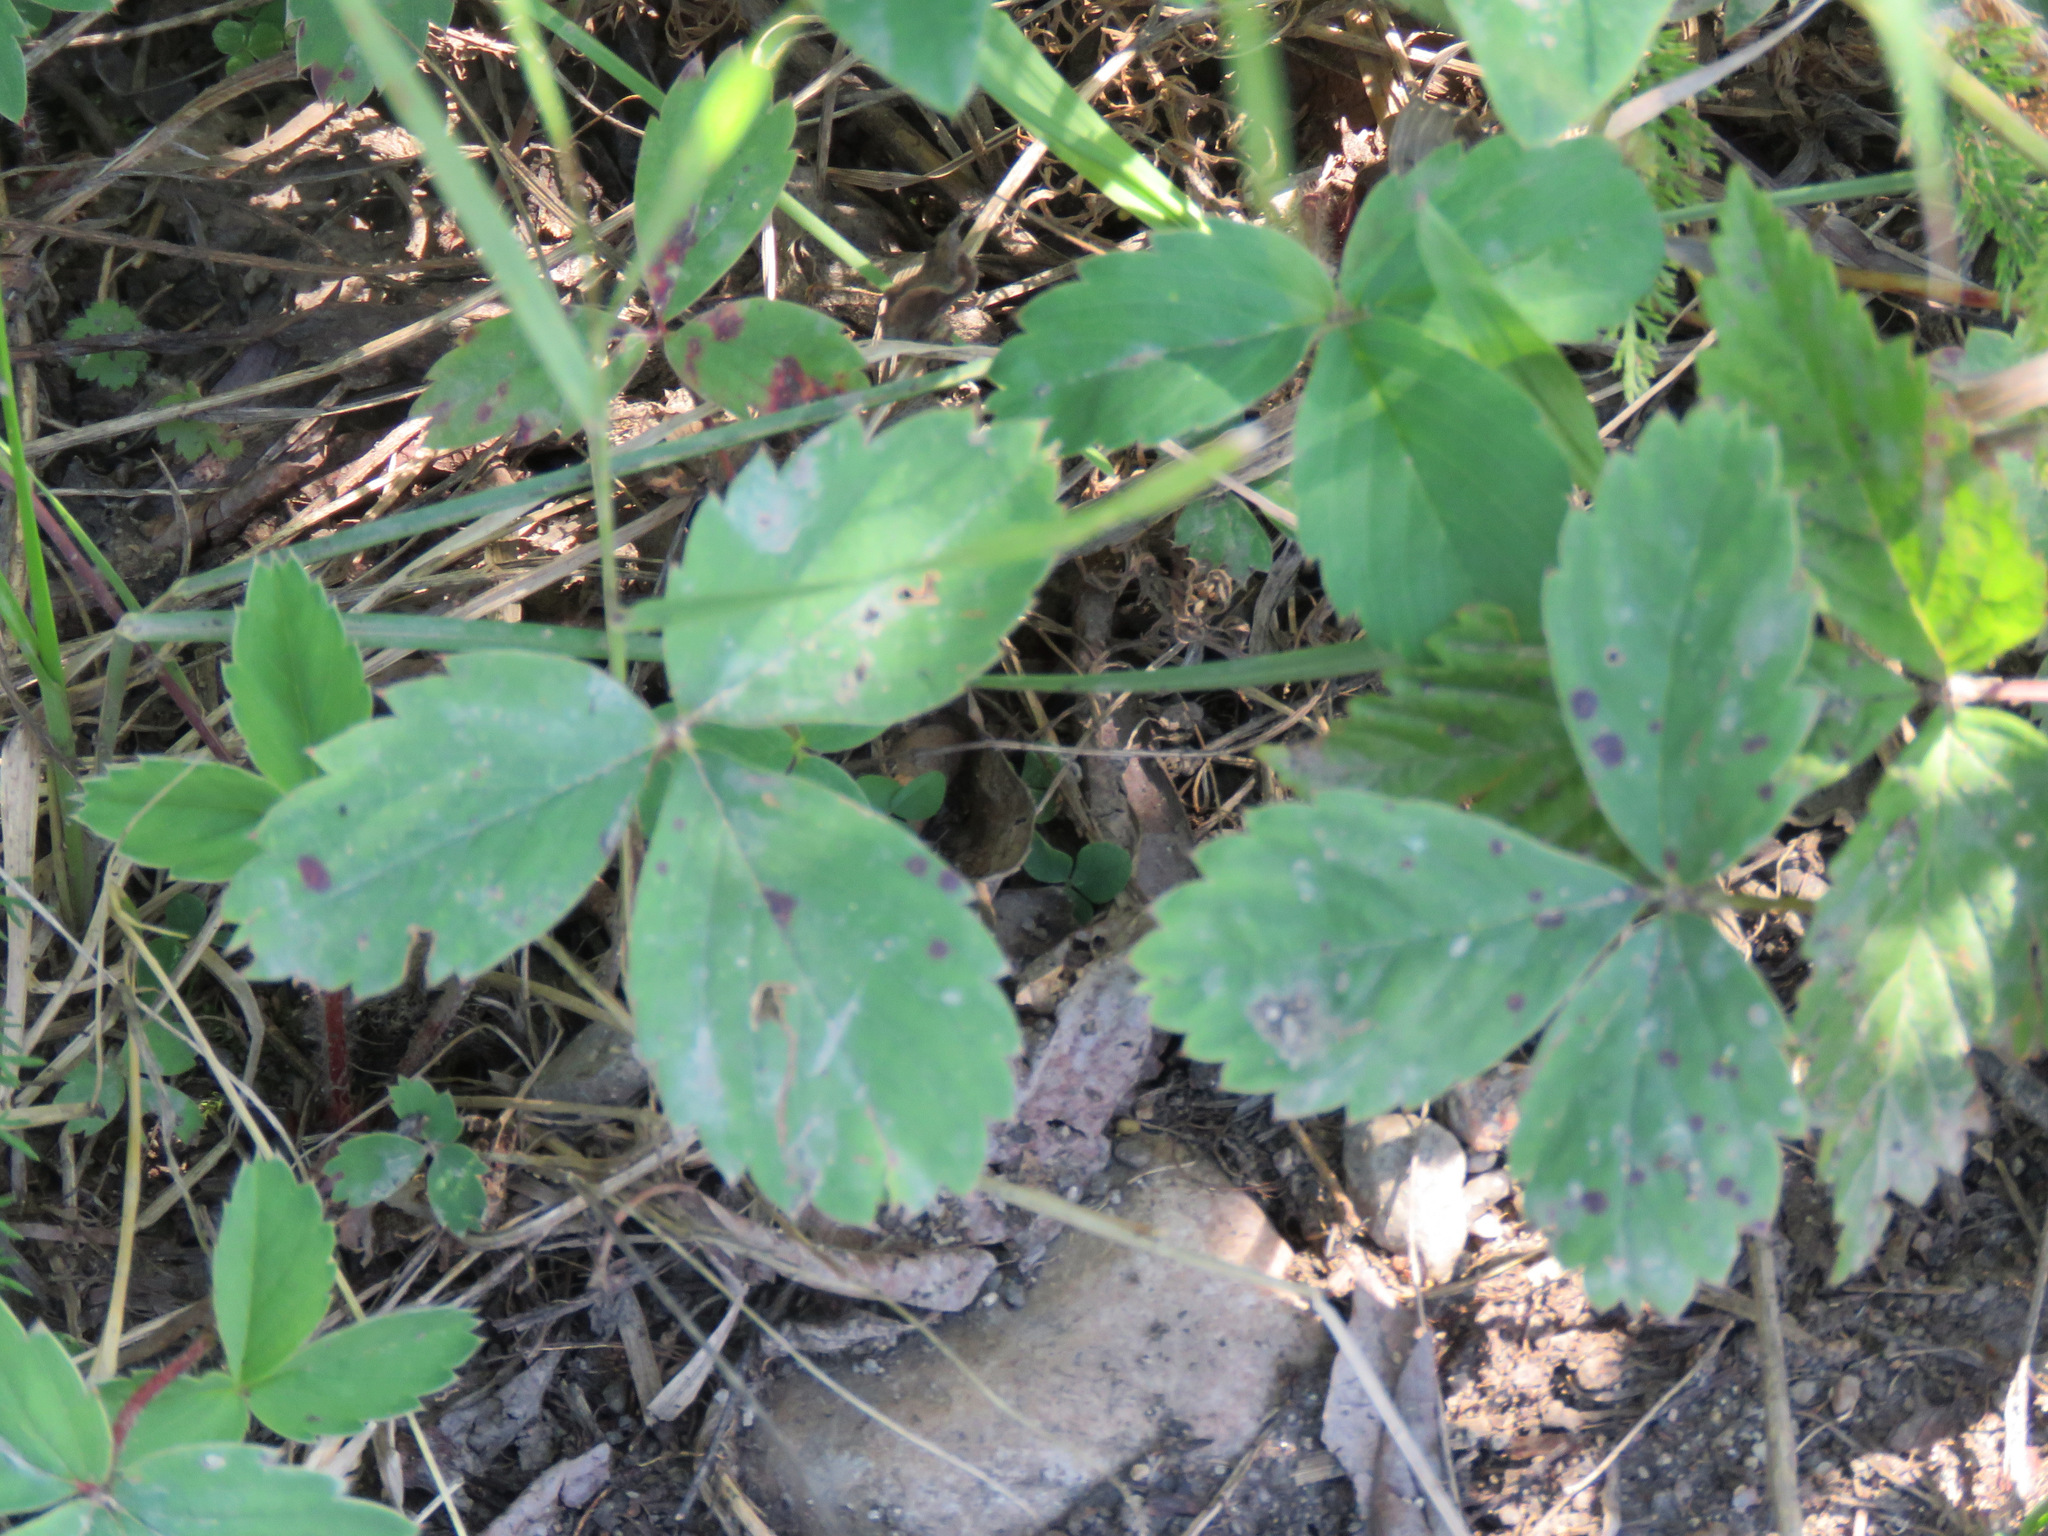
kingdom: Plantae
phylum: Tracheophyta
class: Magnoliopsida
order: Rosales
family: Rosaceae
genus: Fragaria
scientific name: Fragaria virginiana
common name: Thickleaved wild strawberry
